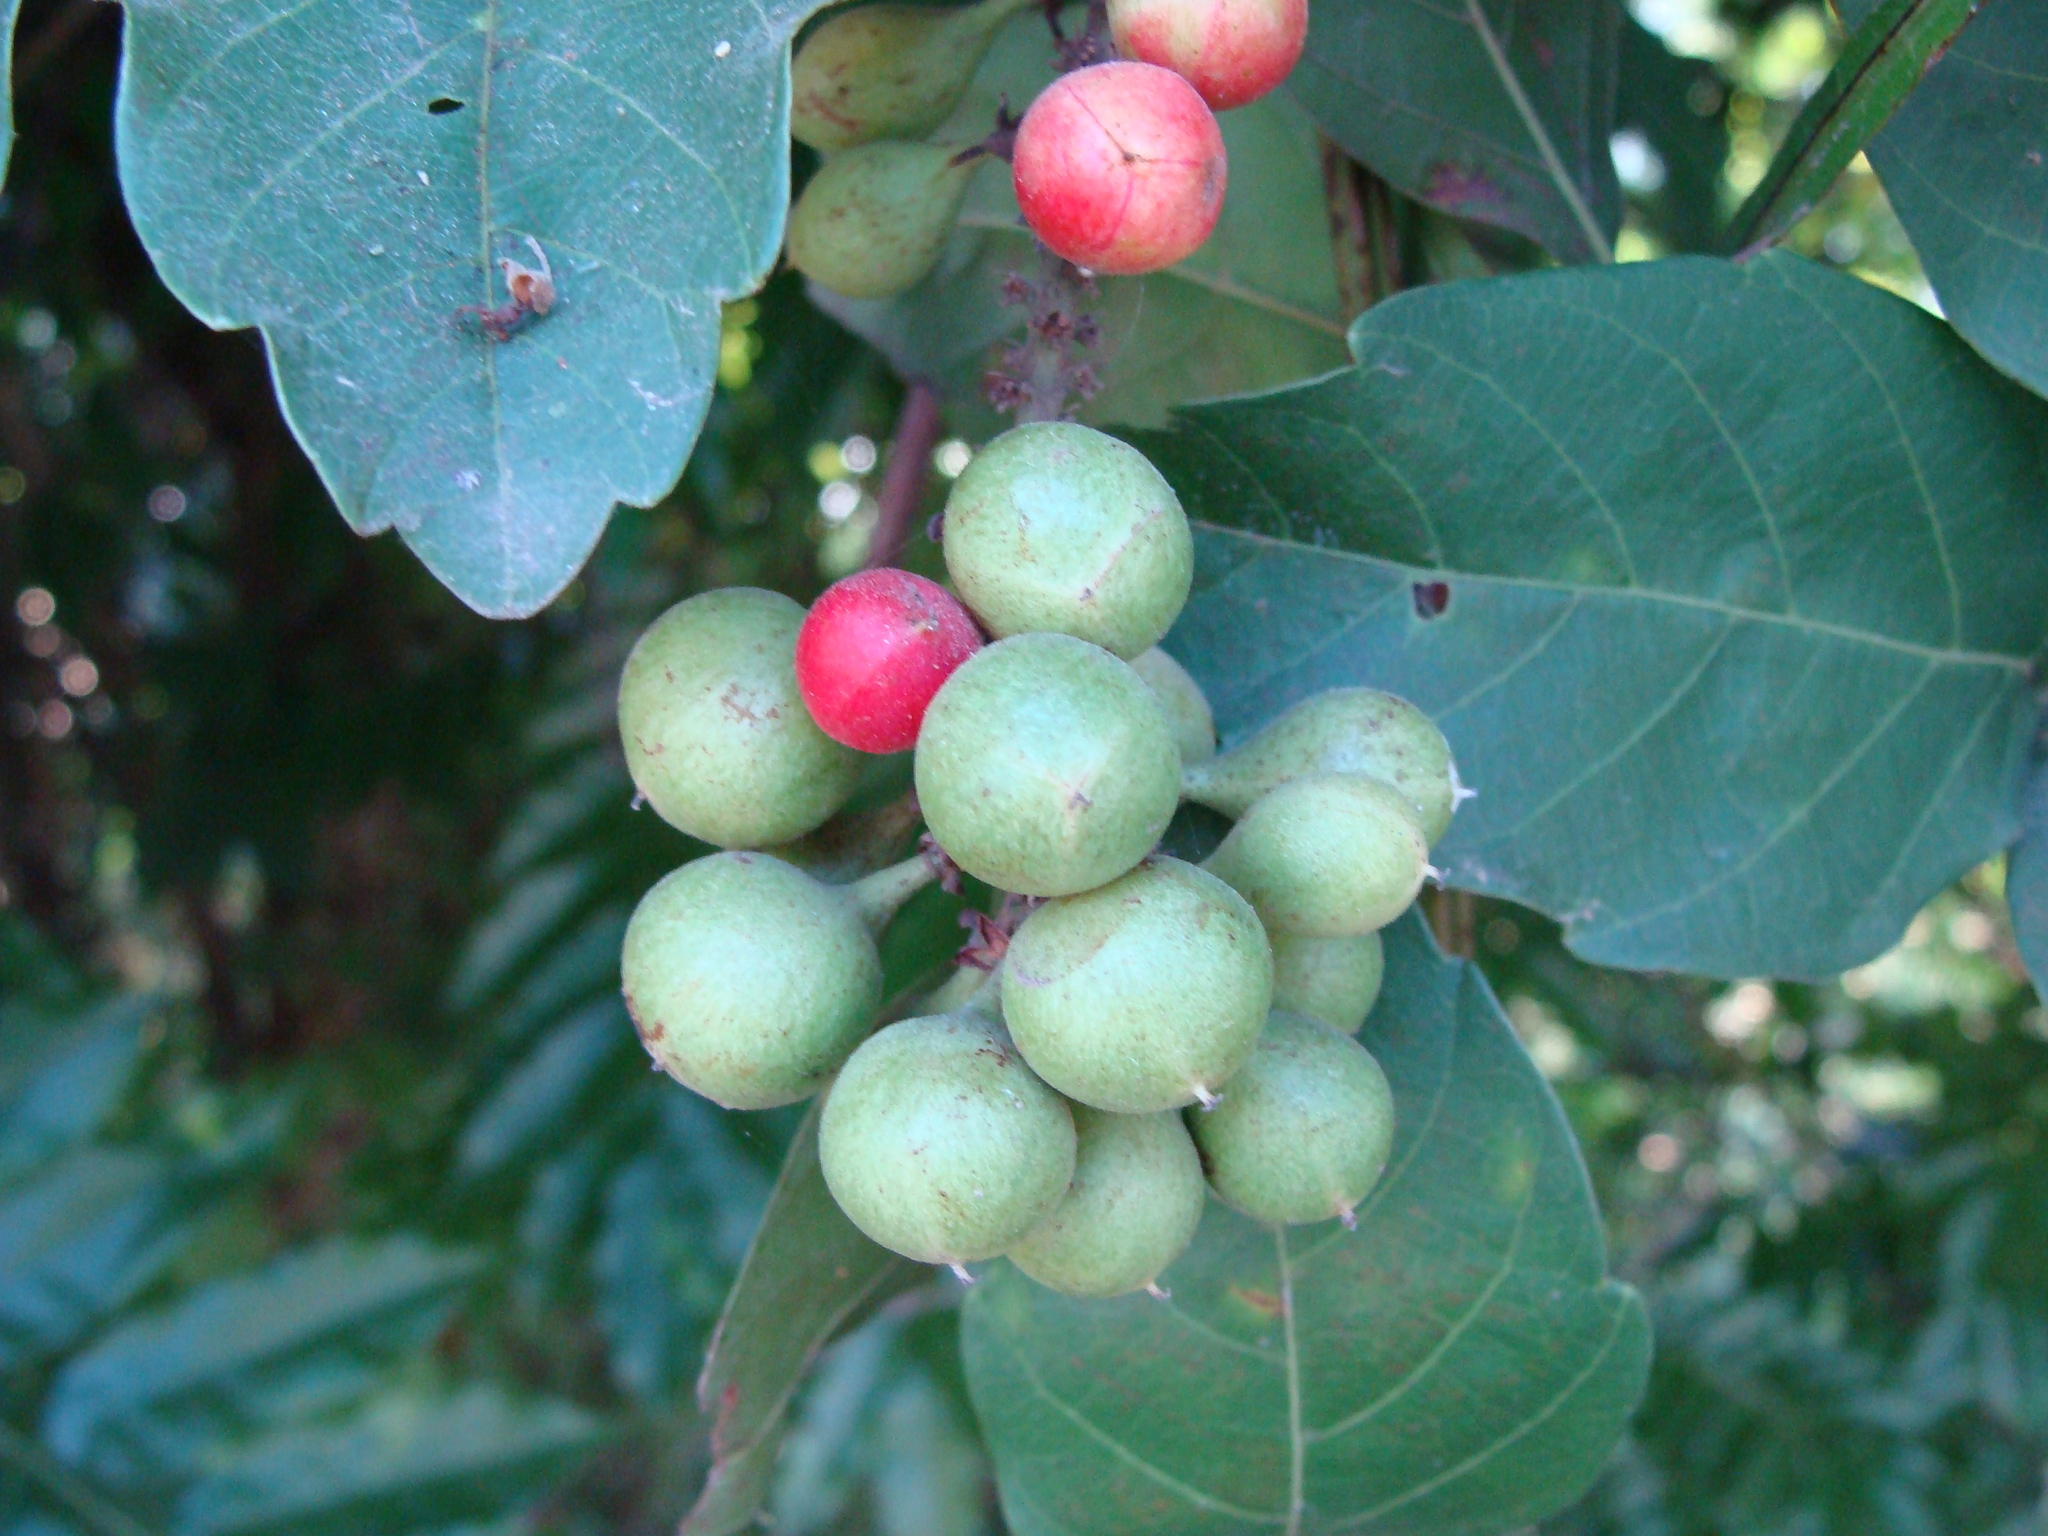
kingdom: Plantae
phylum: Tracheophyta
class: Magnoliopsida
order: Sapindales
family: Sapindaceae
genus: Paullinia
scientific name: Paullinia pinnata
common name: Barbasco
